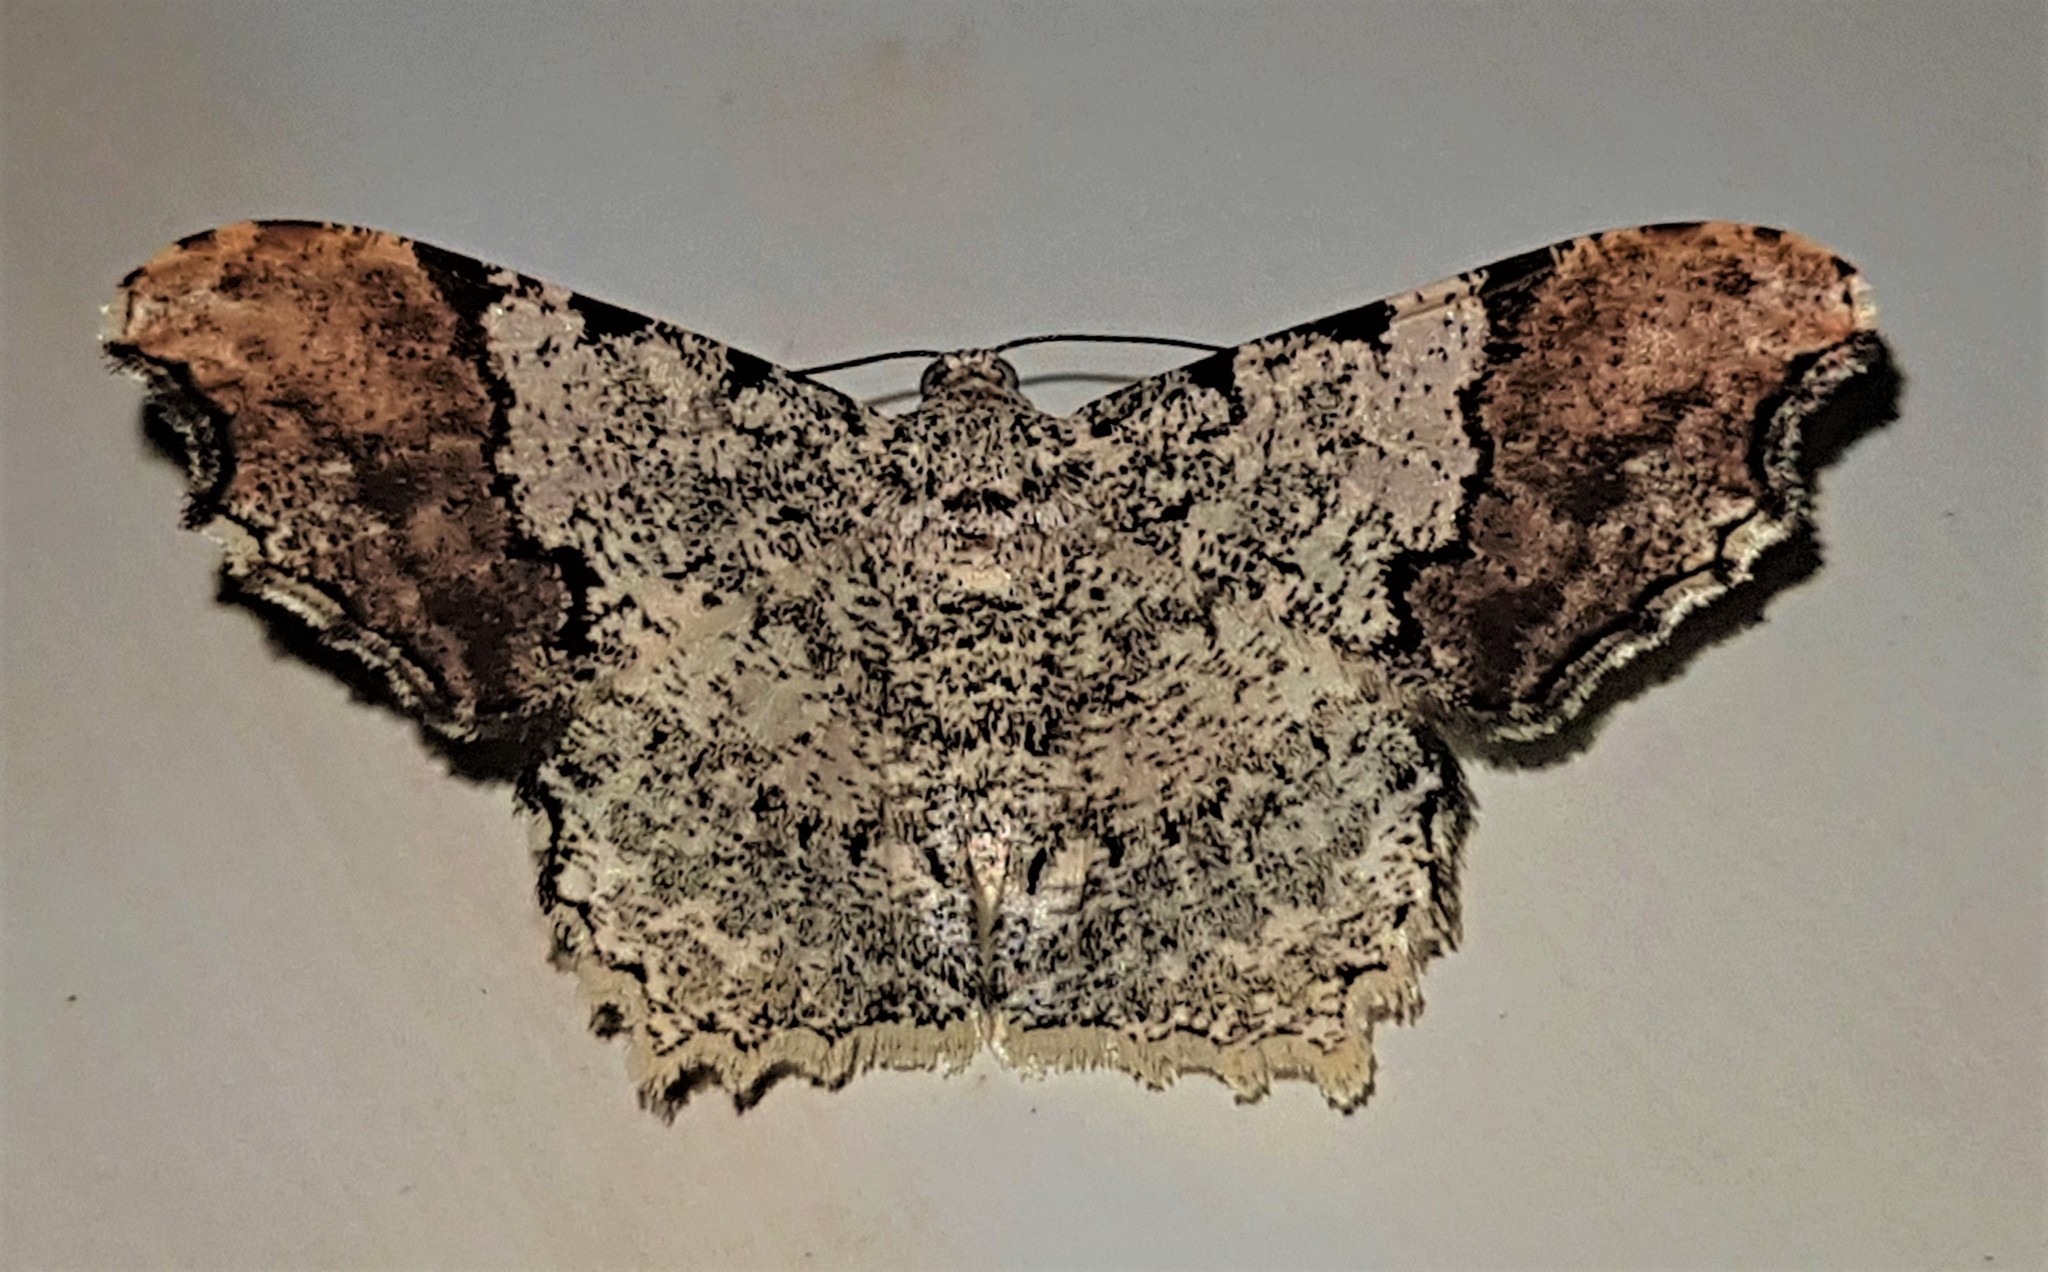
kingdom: Animalia
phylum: Arthropoda
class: Insecta
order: Lepidoptera
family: Geometridae
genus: Macaria
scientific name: Macaria approximaria
